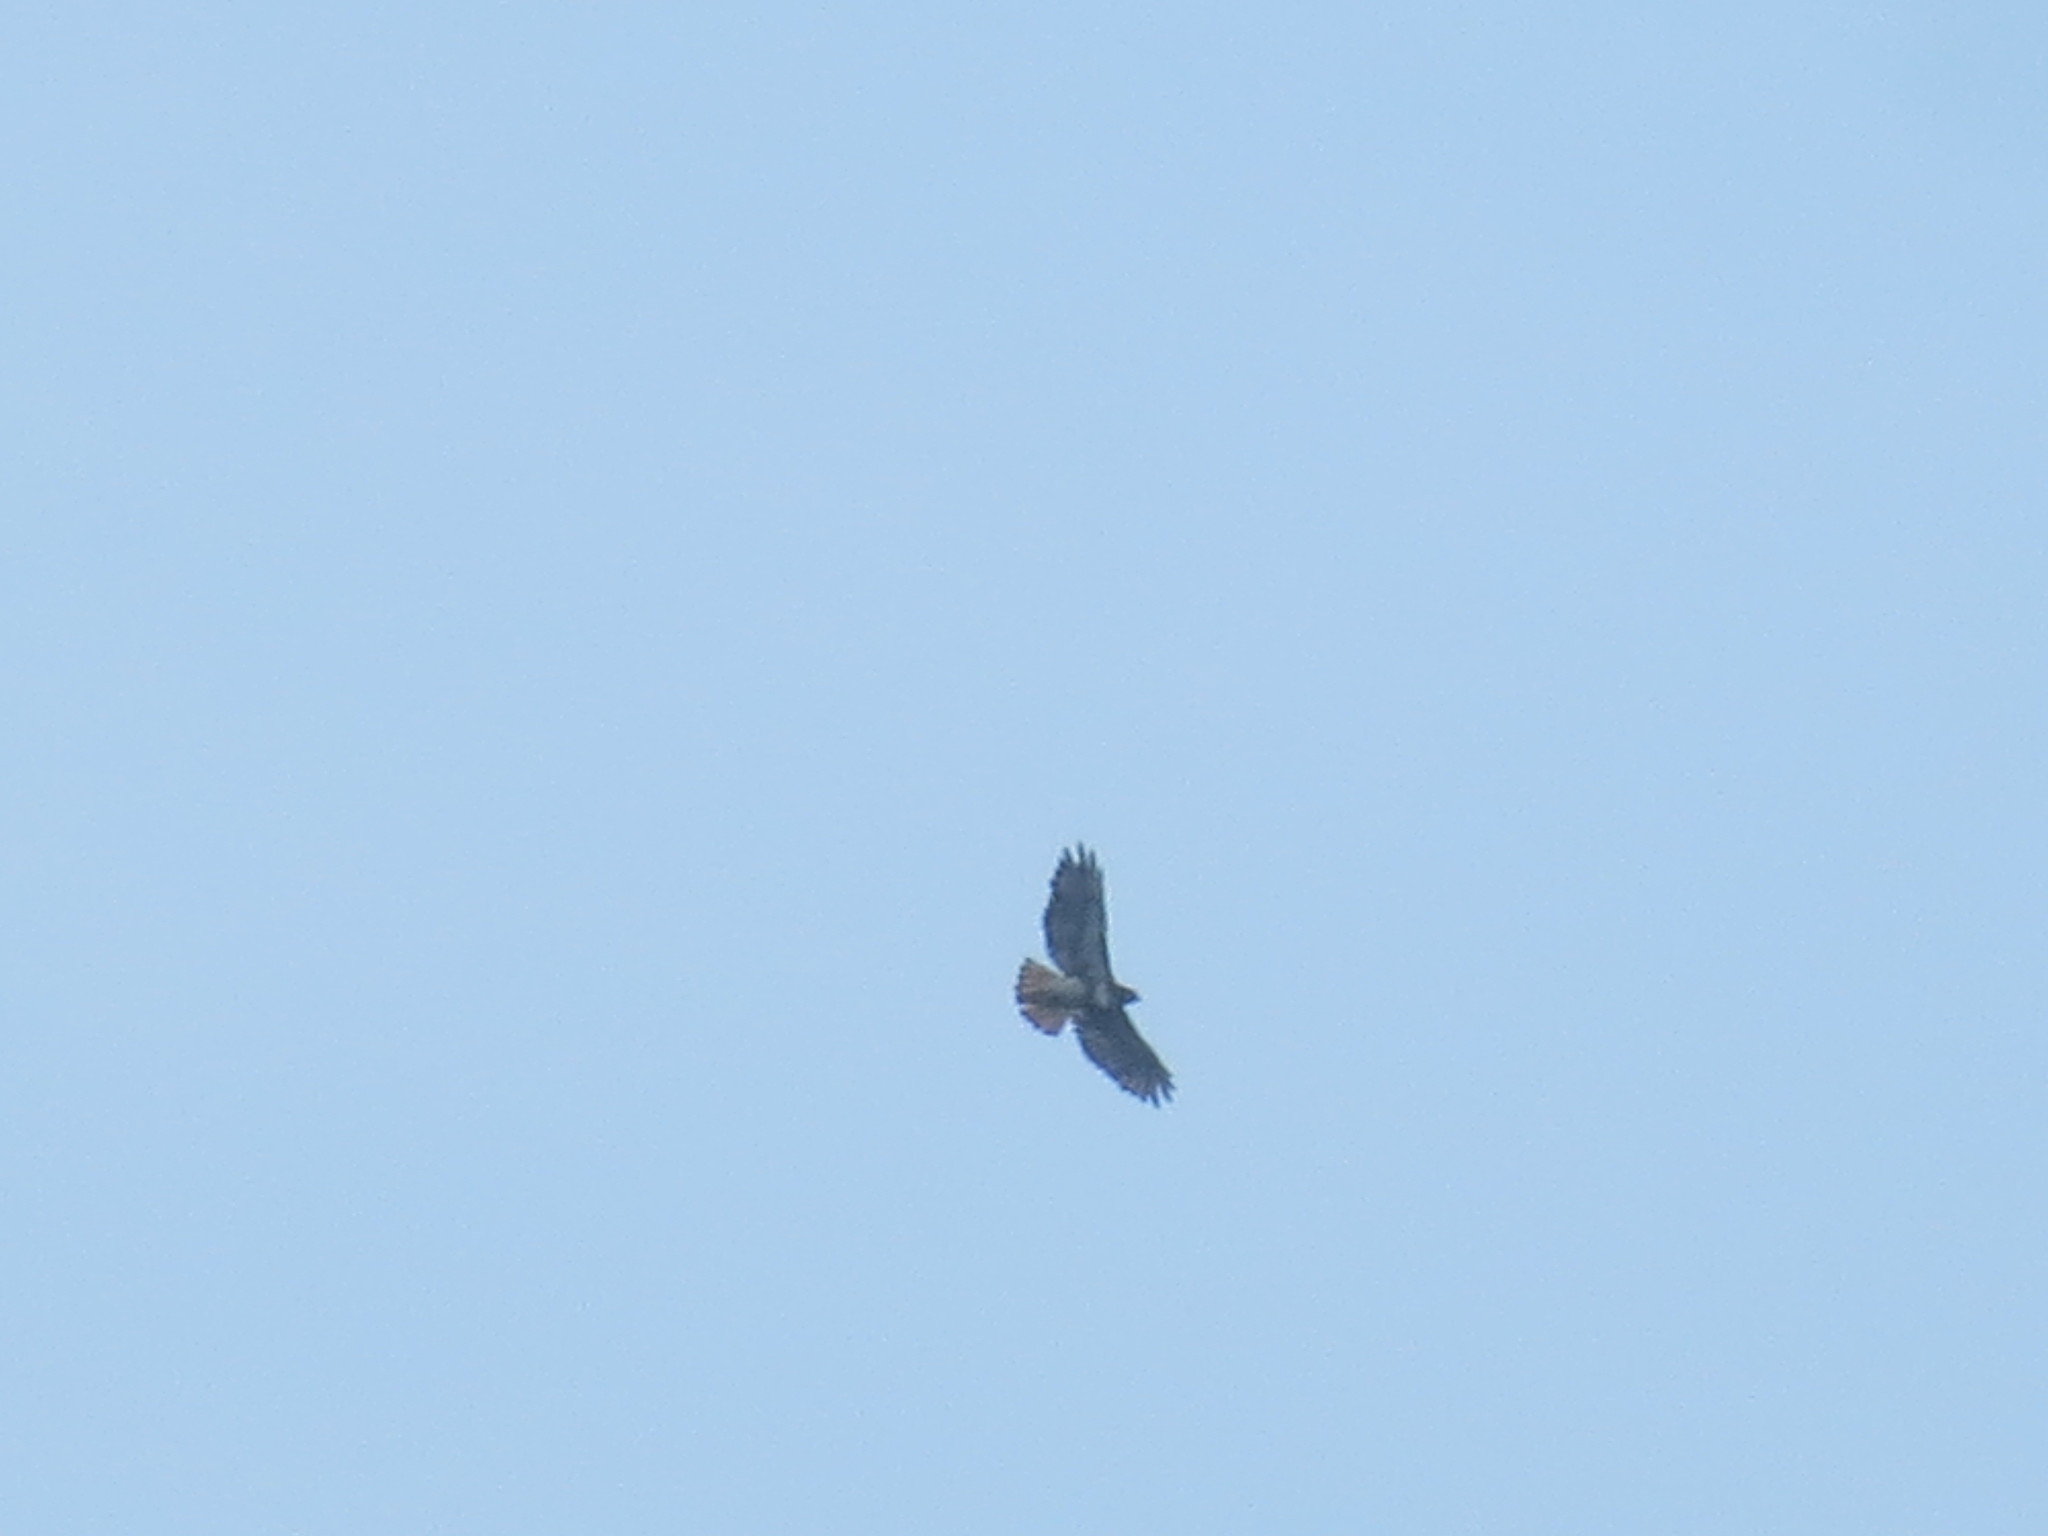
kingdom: Animalia
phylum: Chordata
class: Aves
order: Accipitriformes
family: Accipitridae
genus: Buteo
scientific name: Buteo jamaicensis
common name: Red-tailed hawk
